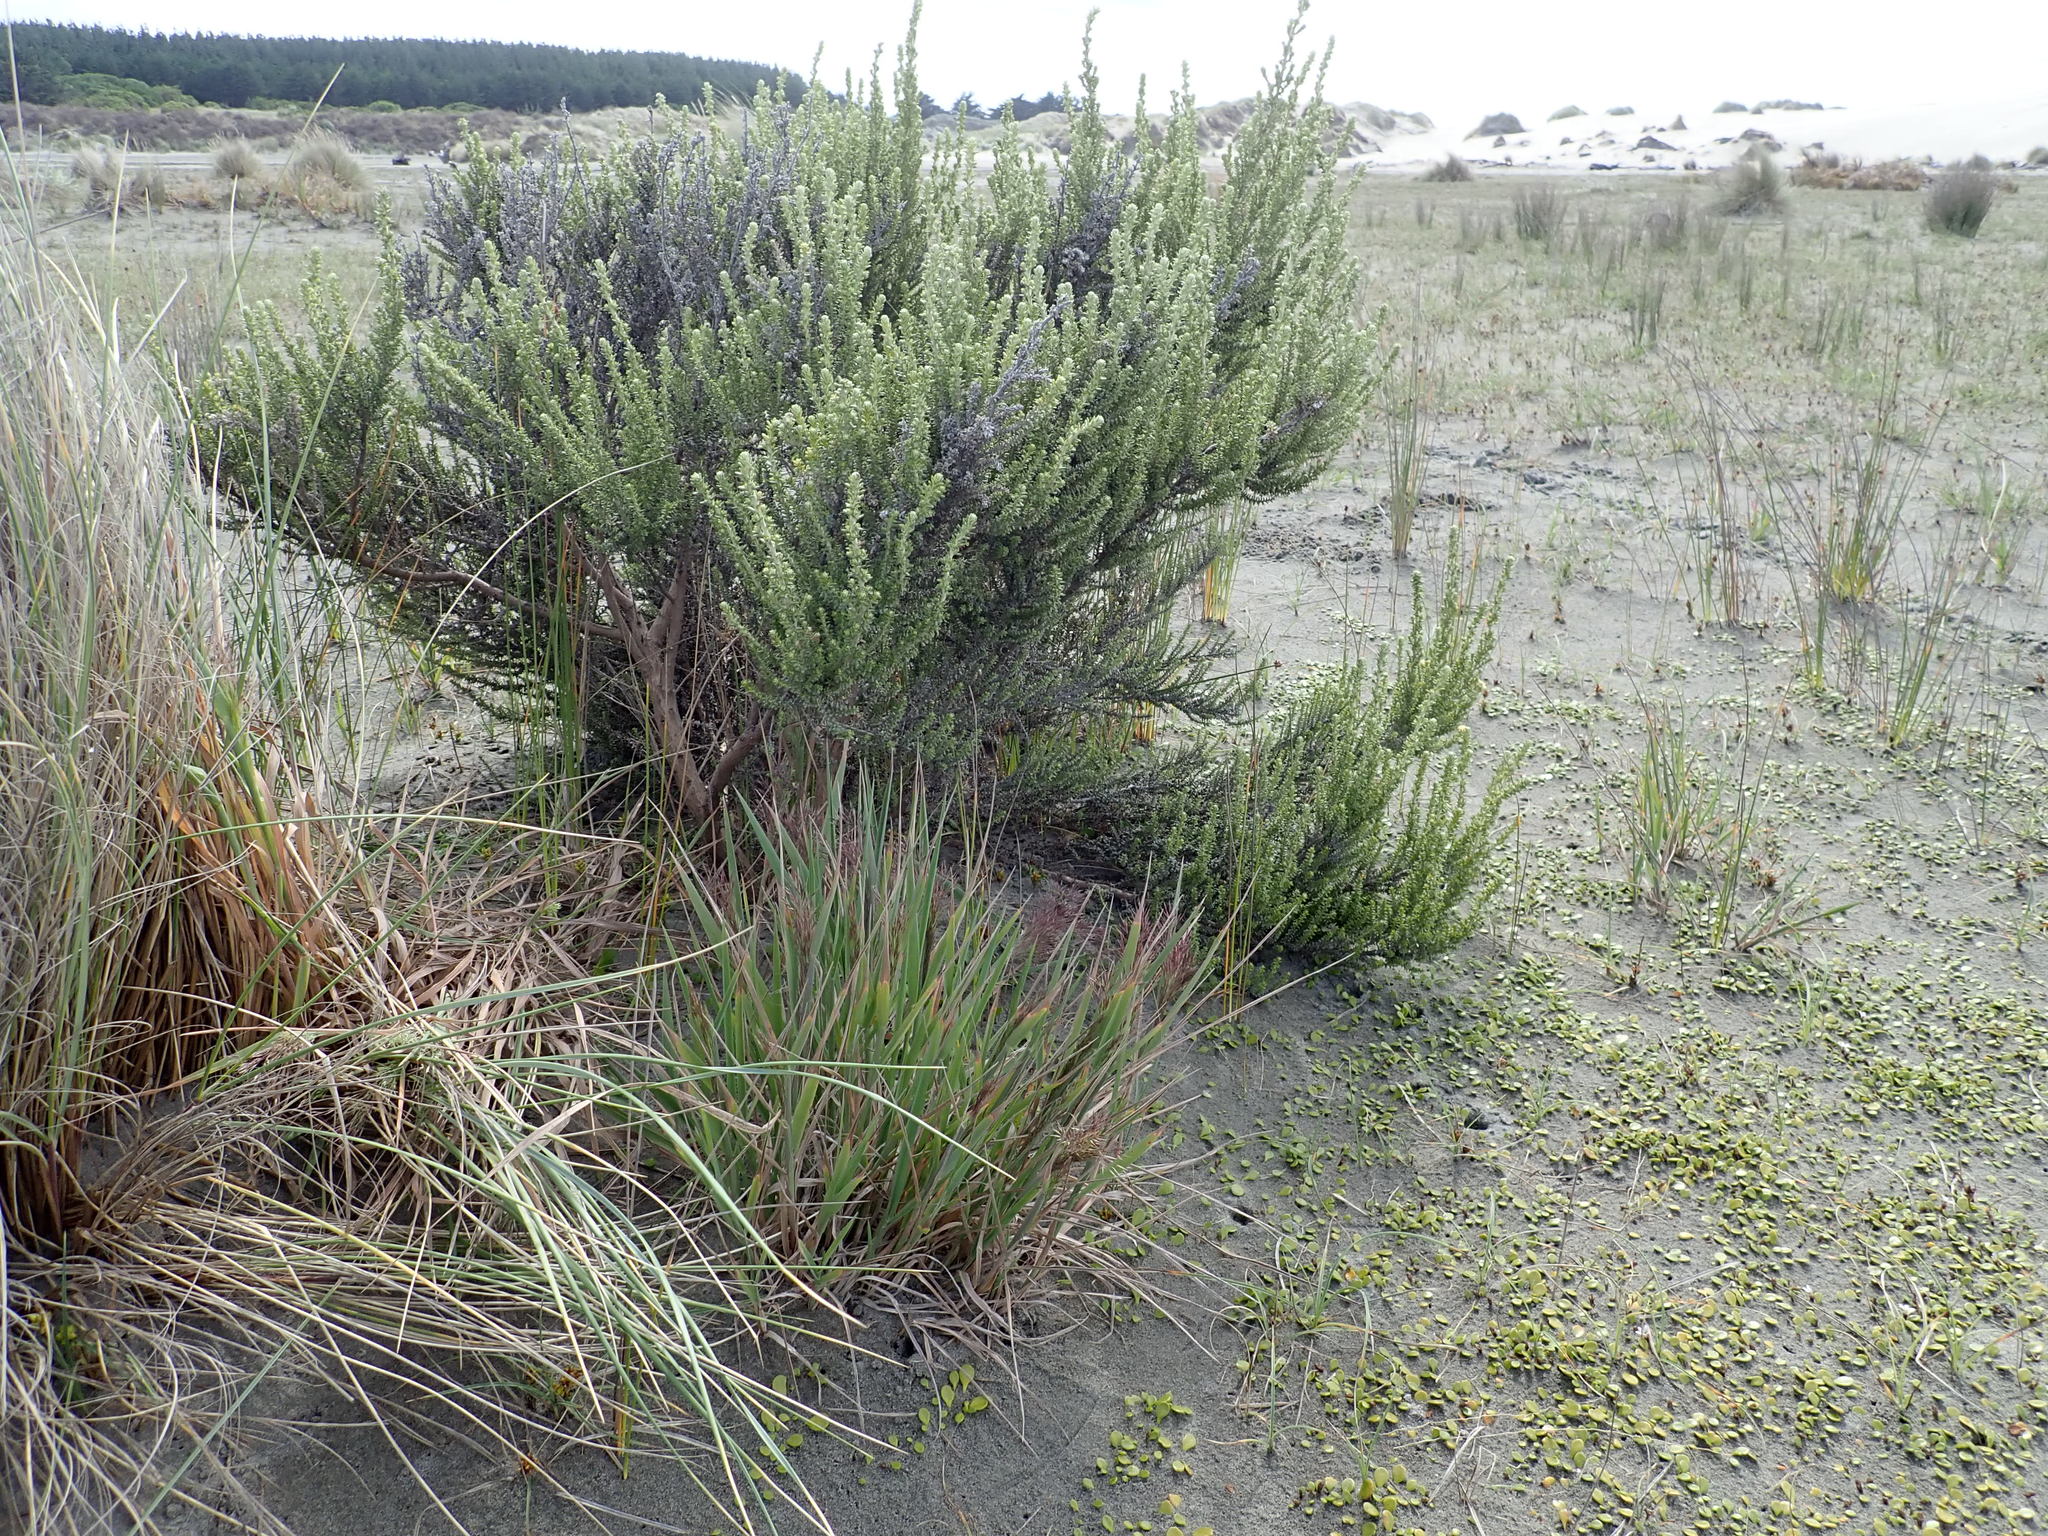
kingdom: Plantae
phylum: Tracheophyta
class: Magnoliopsida
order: Asterales
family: Asteraceae
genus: Ozothamnus
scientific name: Ozothamnus leptophyllus
